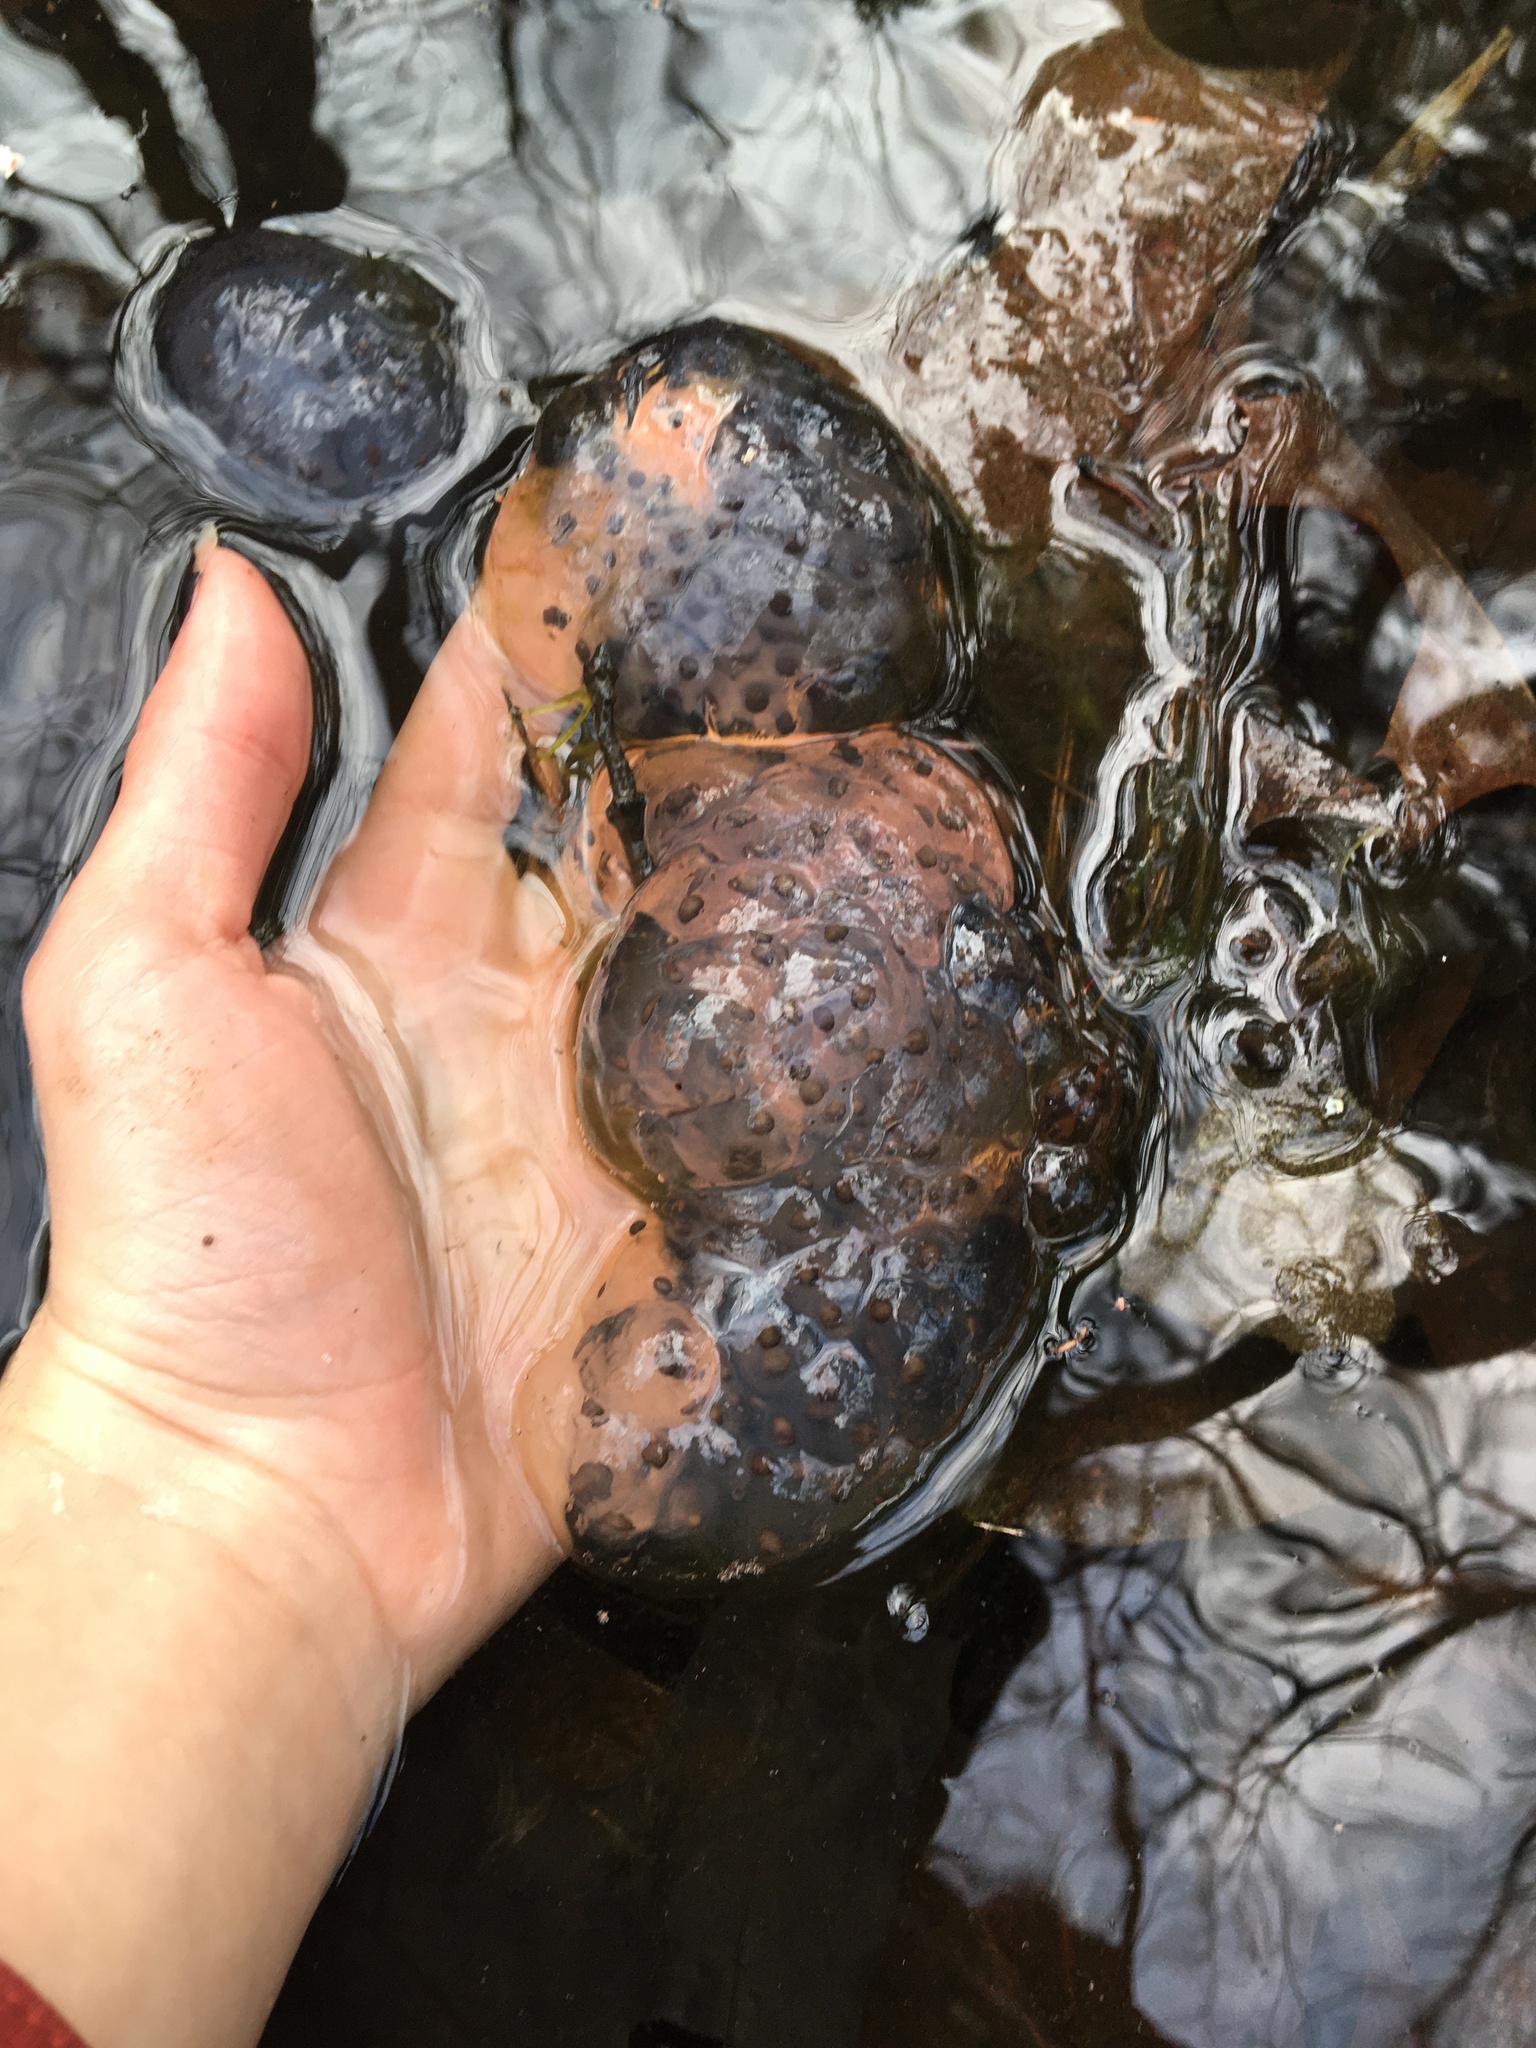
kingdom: Animalia
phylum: Chordata
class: Amphibia
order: Caudata
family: Ambystomatidae
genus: Ambystoma
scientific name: Ambystoma maculatum
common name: Spotted salamander
